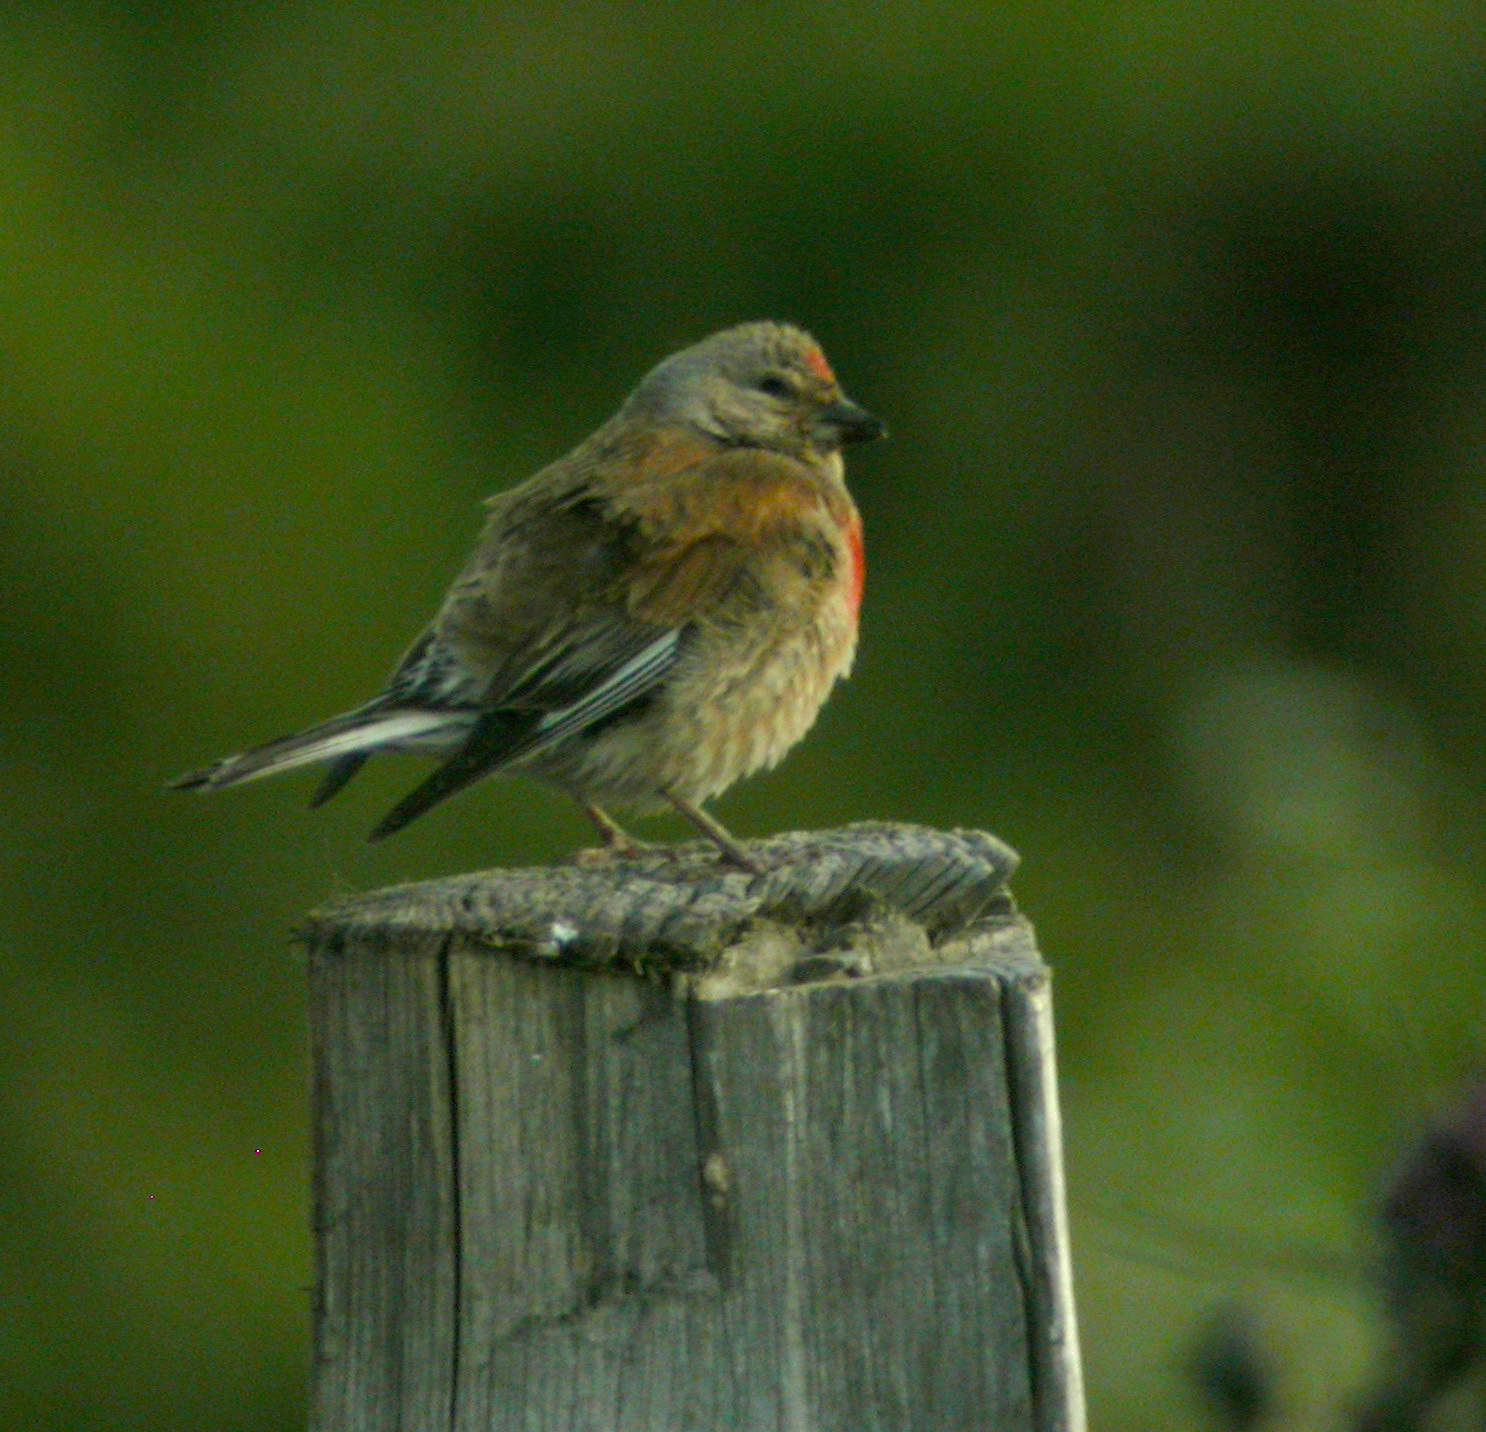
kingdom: Animalia
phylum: Chordata
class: Aves
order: Passeriformes
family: Fringillidae
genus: Linaria
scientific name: Linaria cannabina
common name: Common linnet
